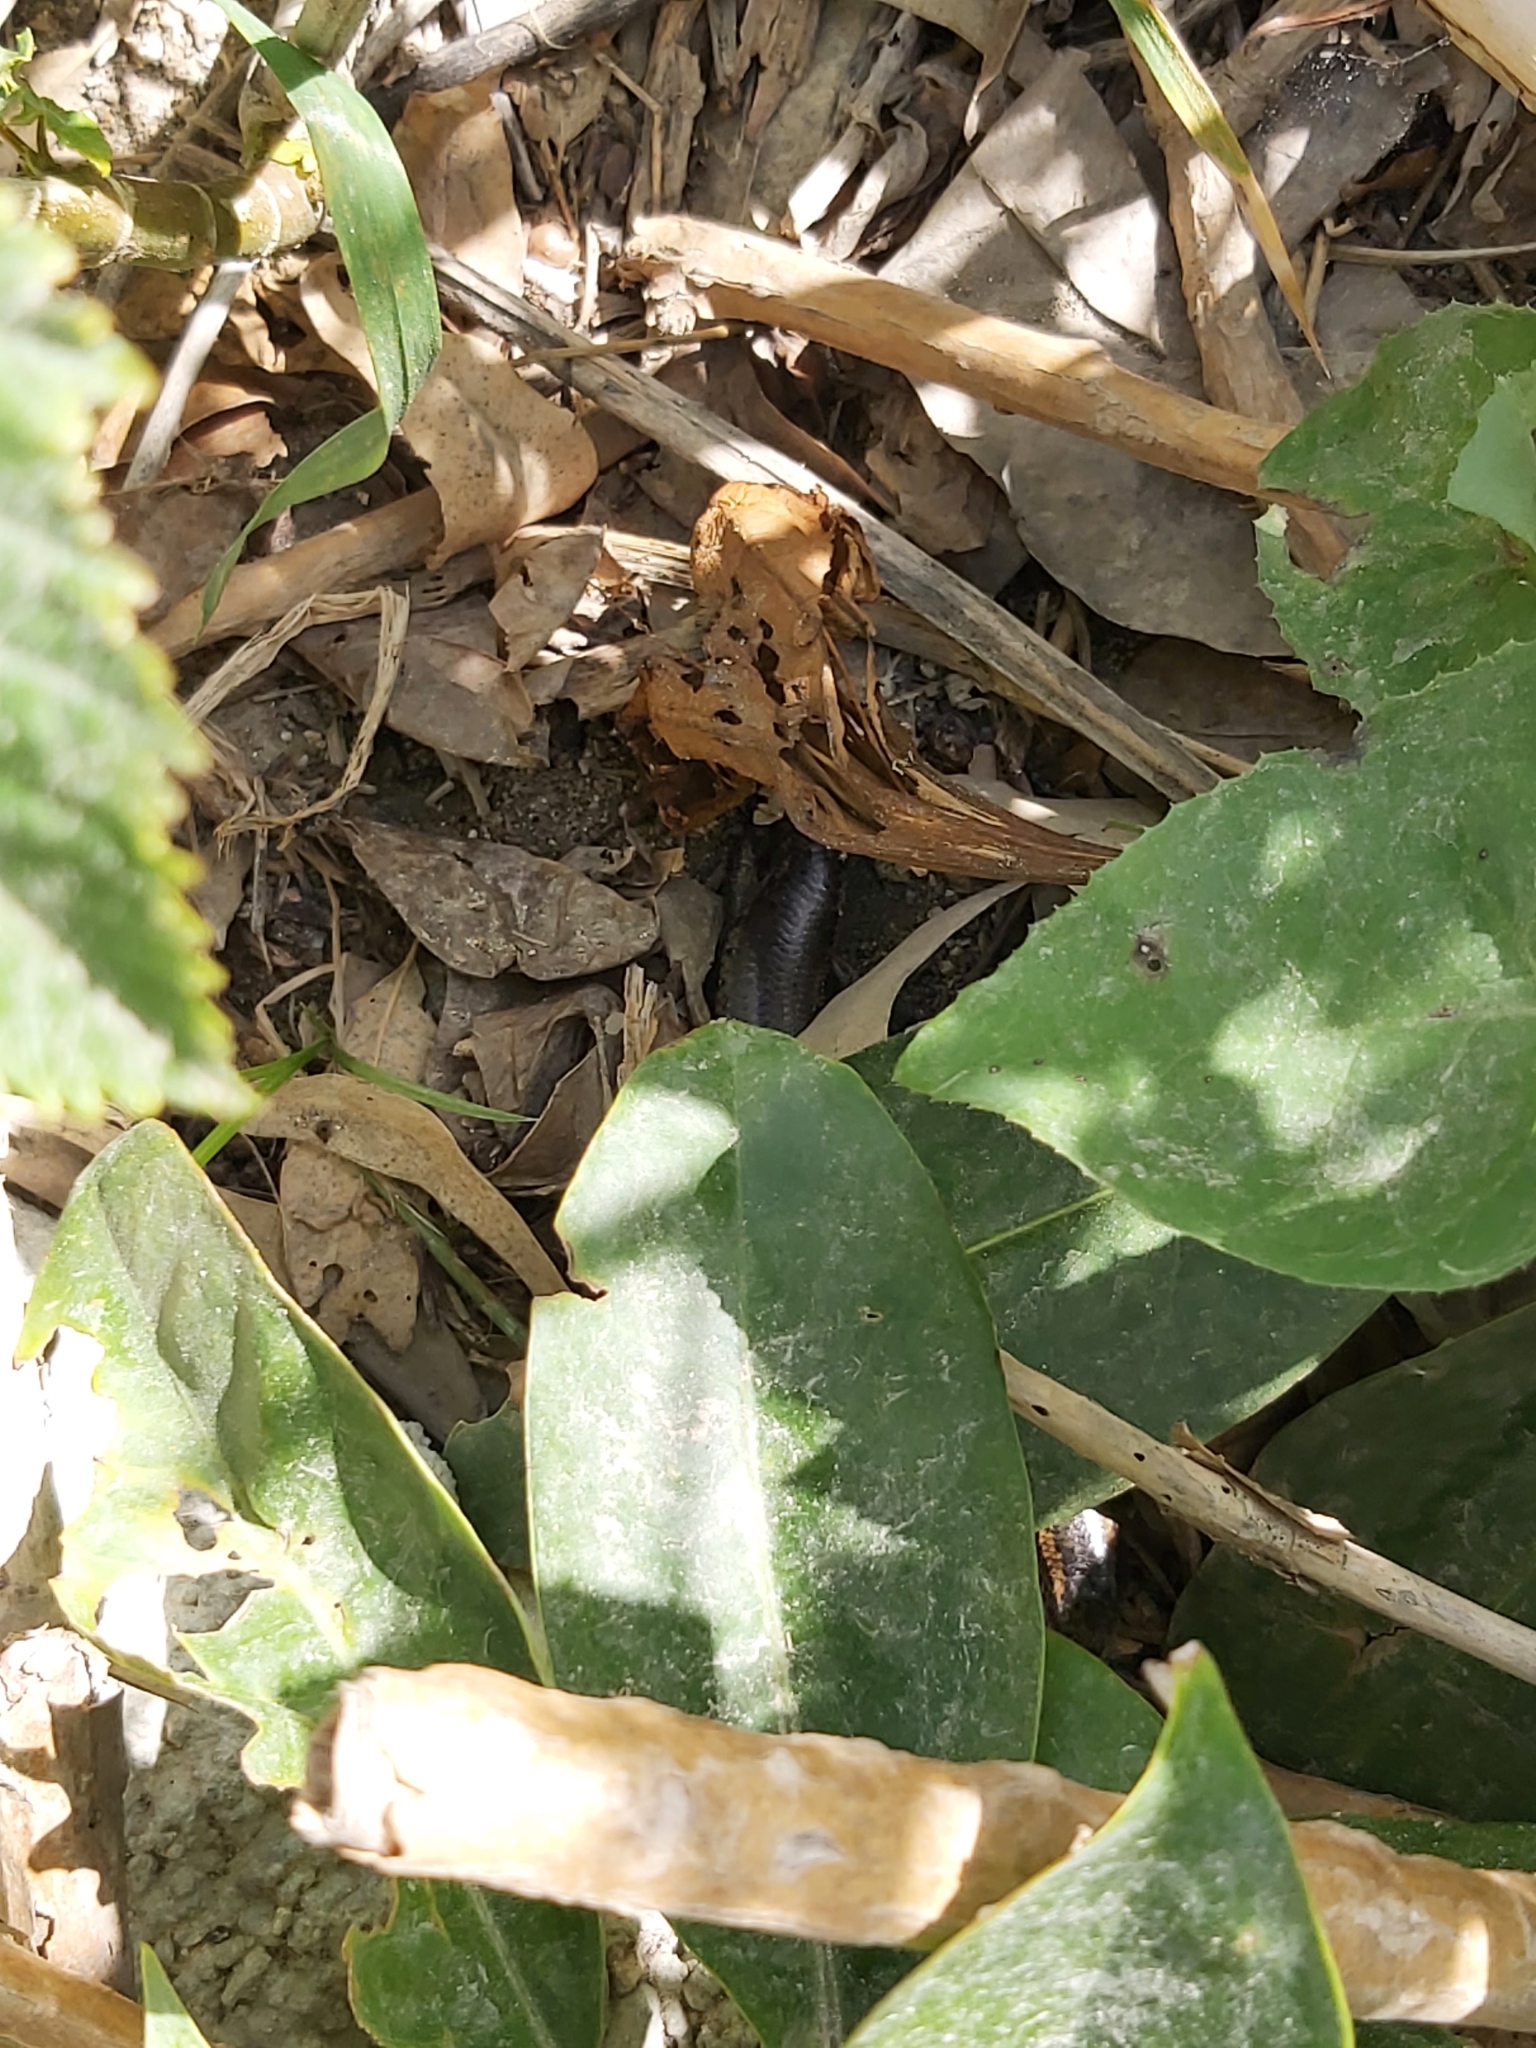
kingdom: Animalia
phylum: Chordata
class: Squamata
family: Scincidae
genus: Chalcides
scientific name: Chalcides ocellatus
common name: Ocellated skink
